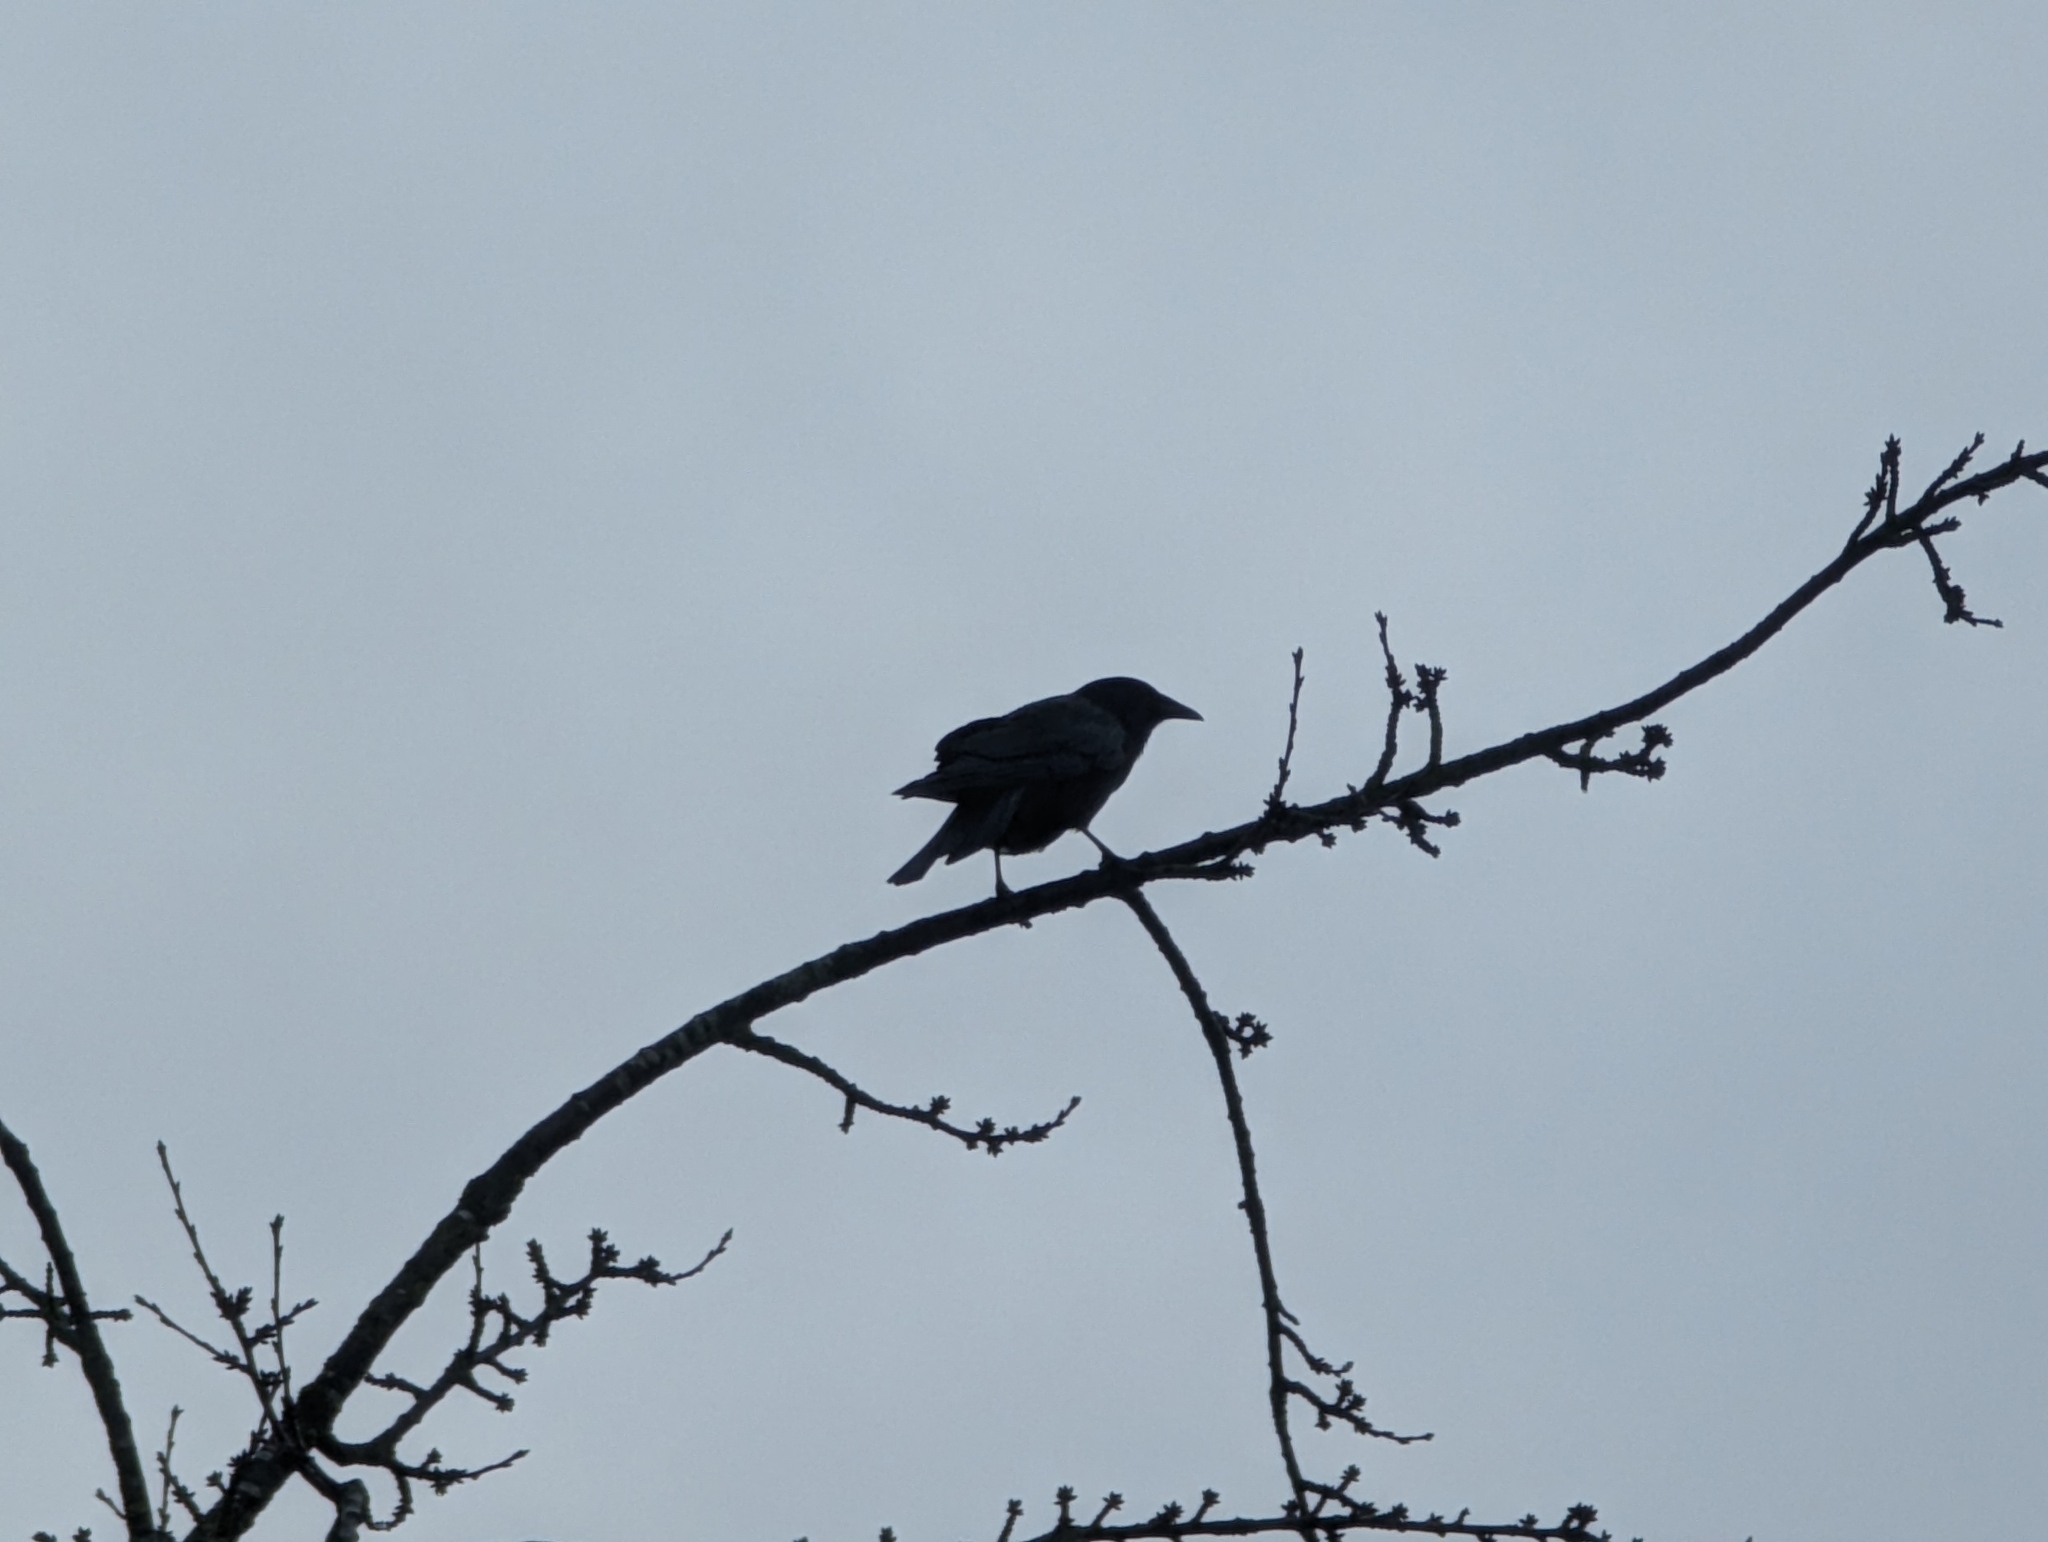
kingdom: Animalia
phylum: Chordata
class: Aves
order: Passeriformes
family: Corvidae
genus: Corvus
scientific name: Corvus brachyrhynchos
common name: American crow
